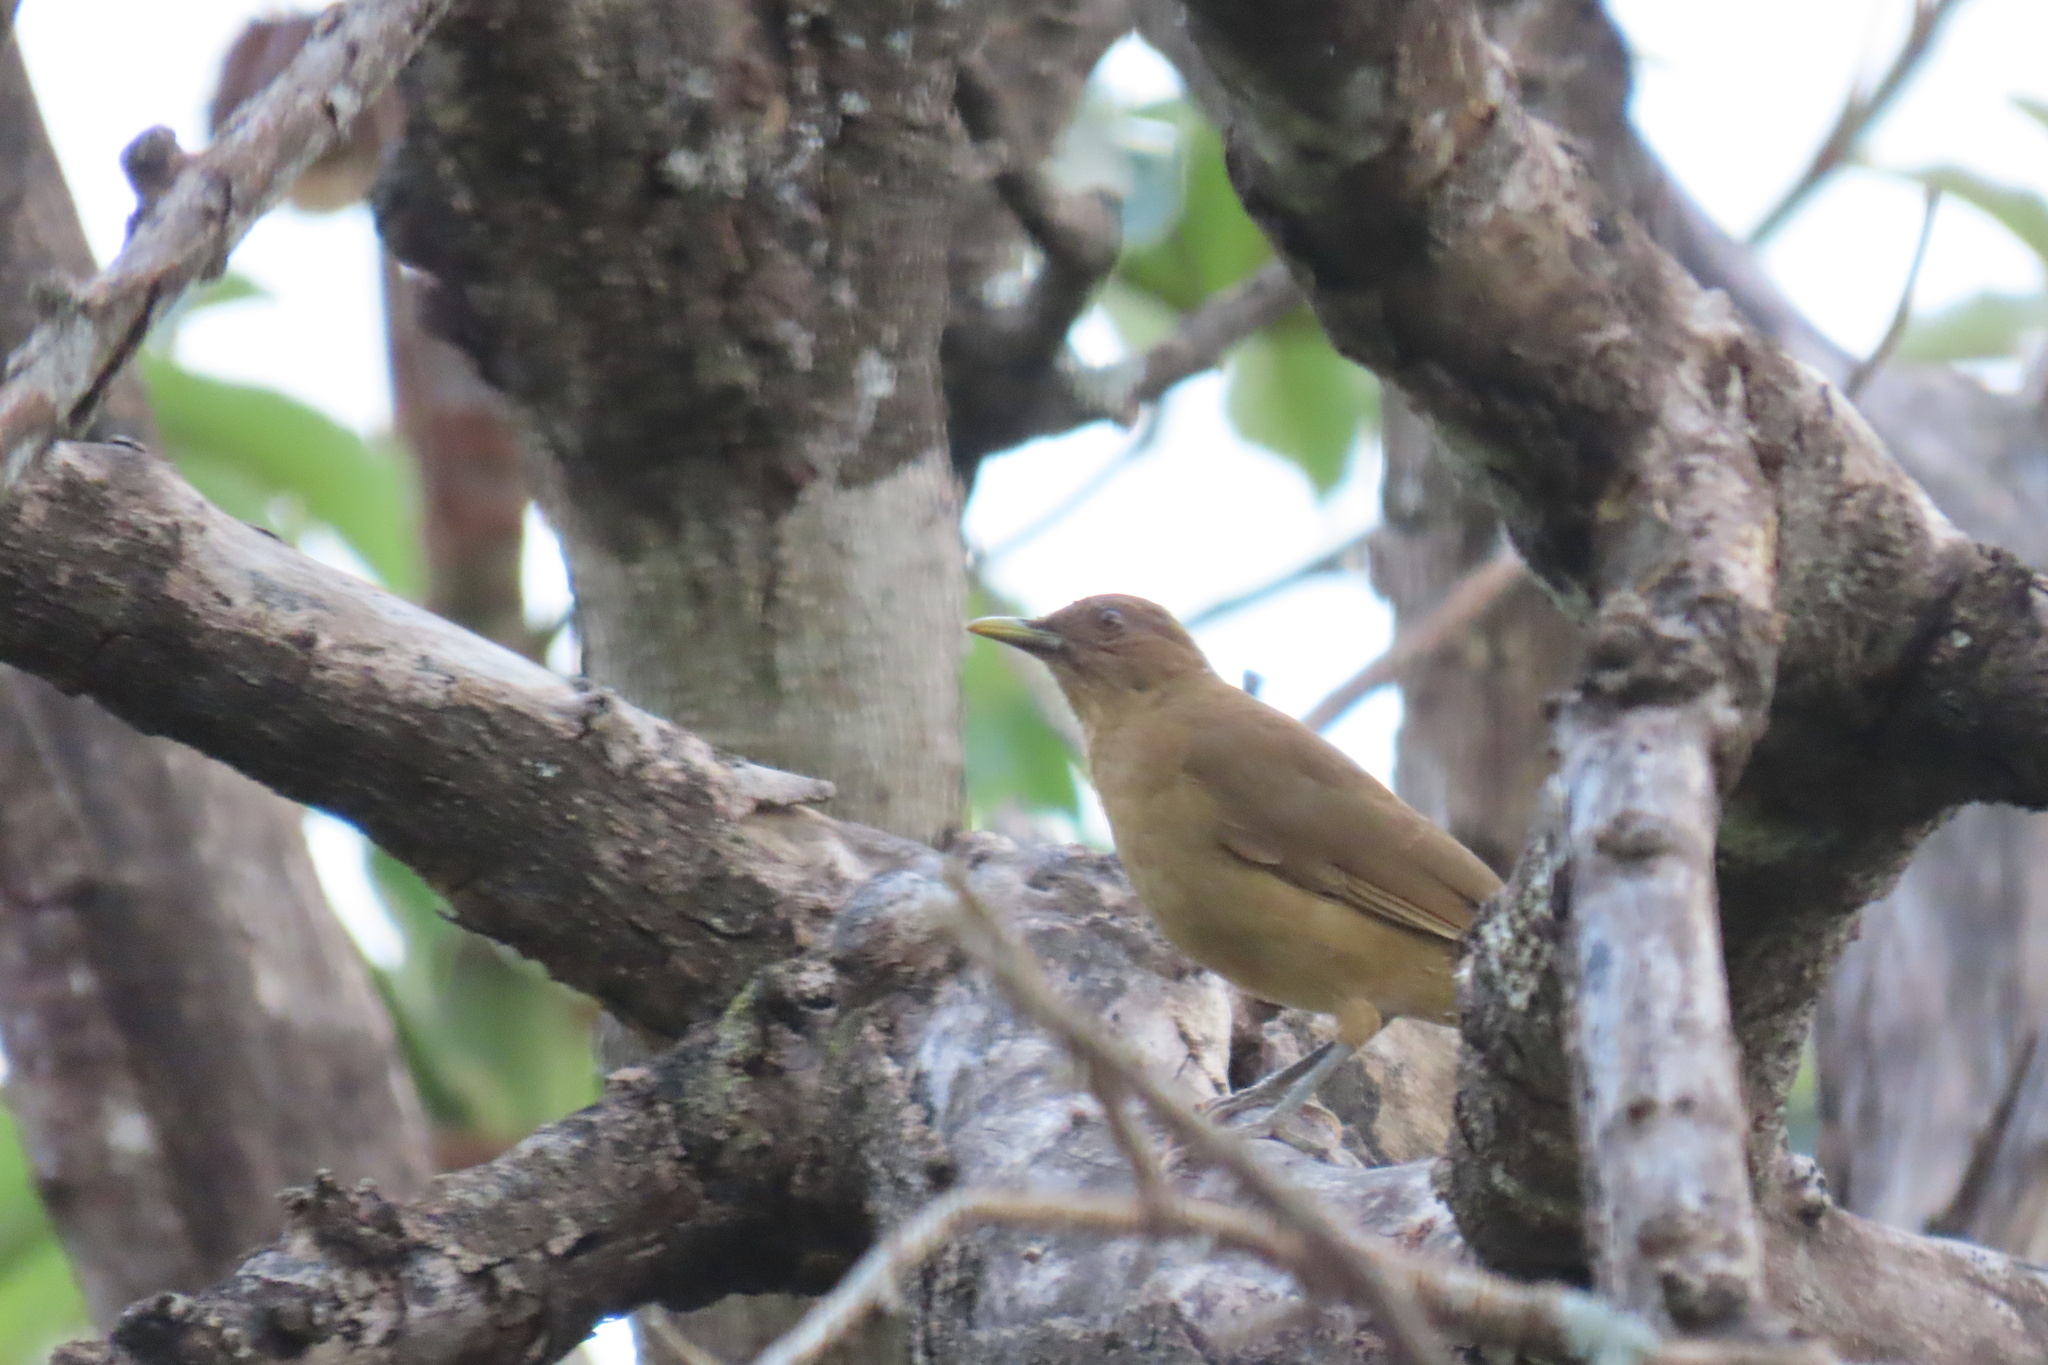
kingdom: Animalia
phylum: Chordata
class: Aves
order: Passeriformes
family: Turdidae
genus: Turdus
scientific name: Turdus grayi
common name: Clay-colored thrush
